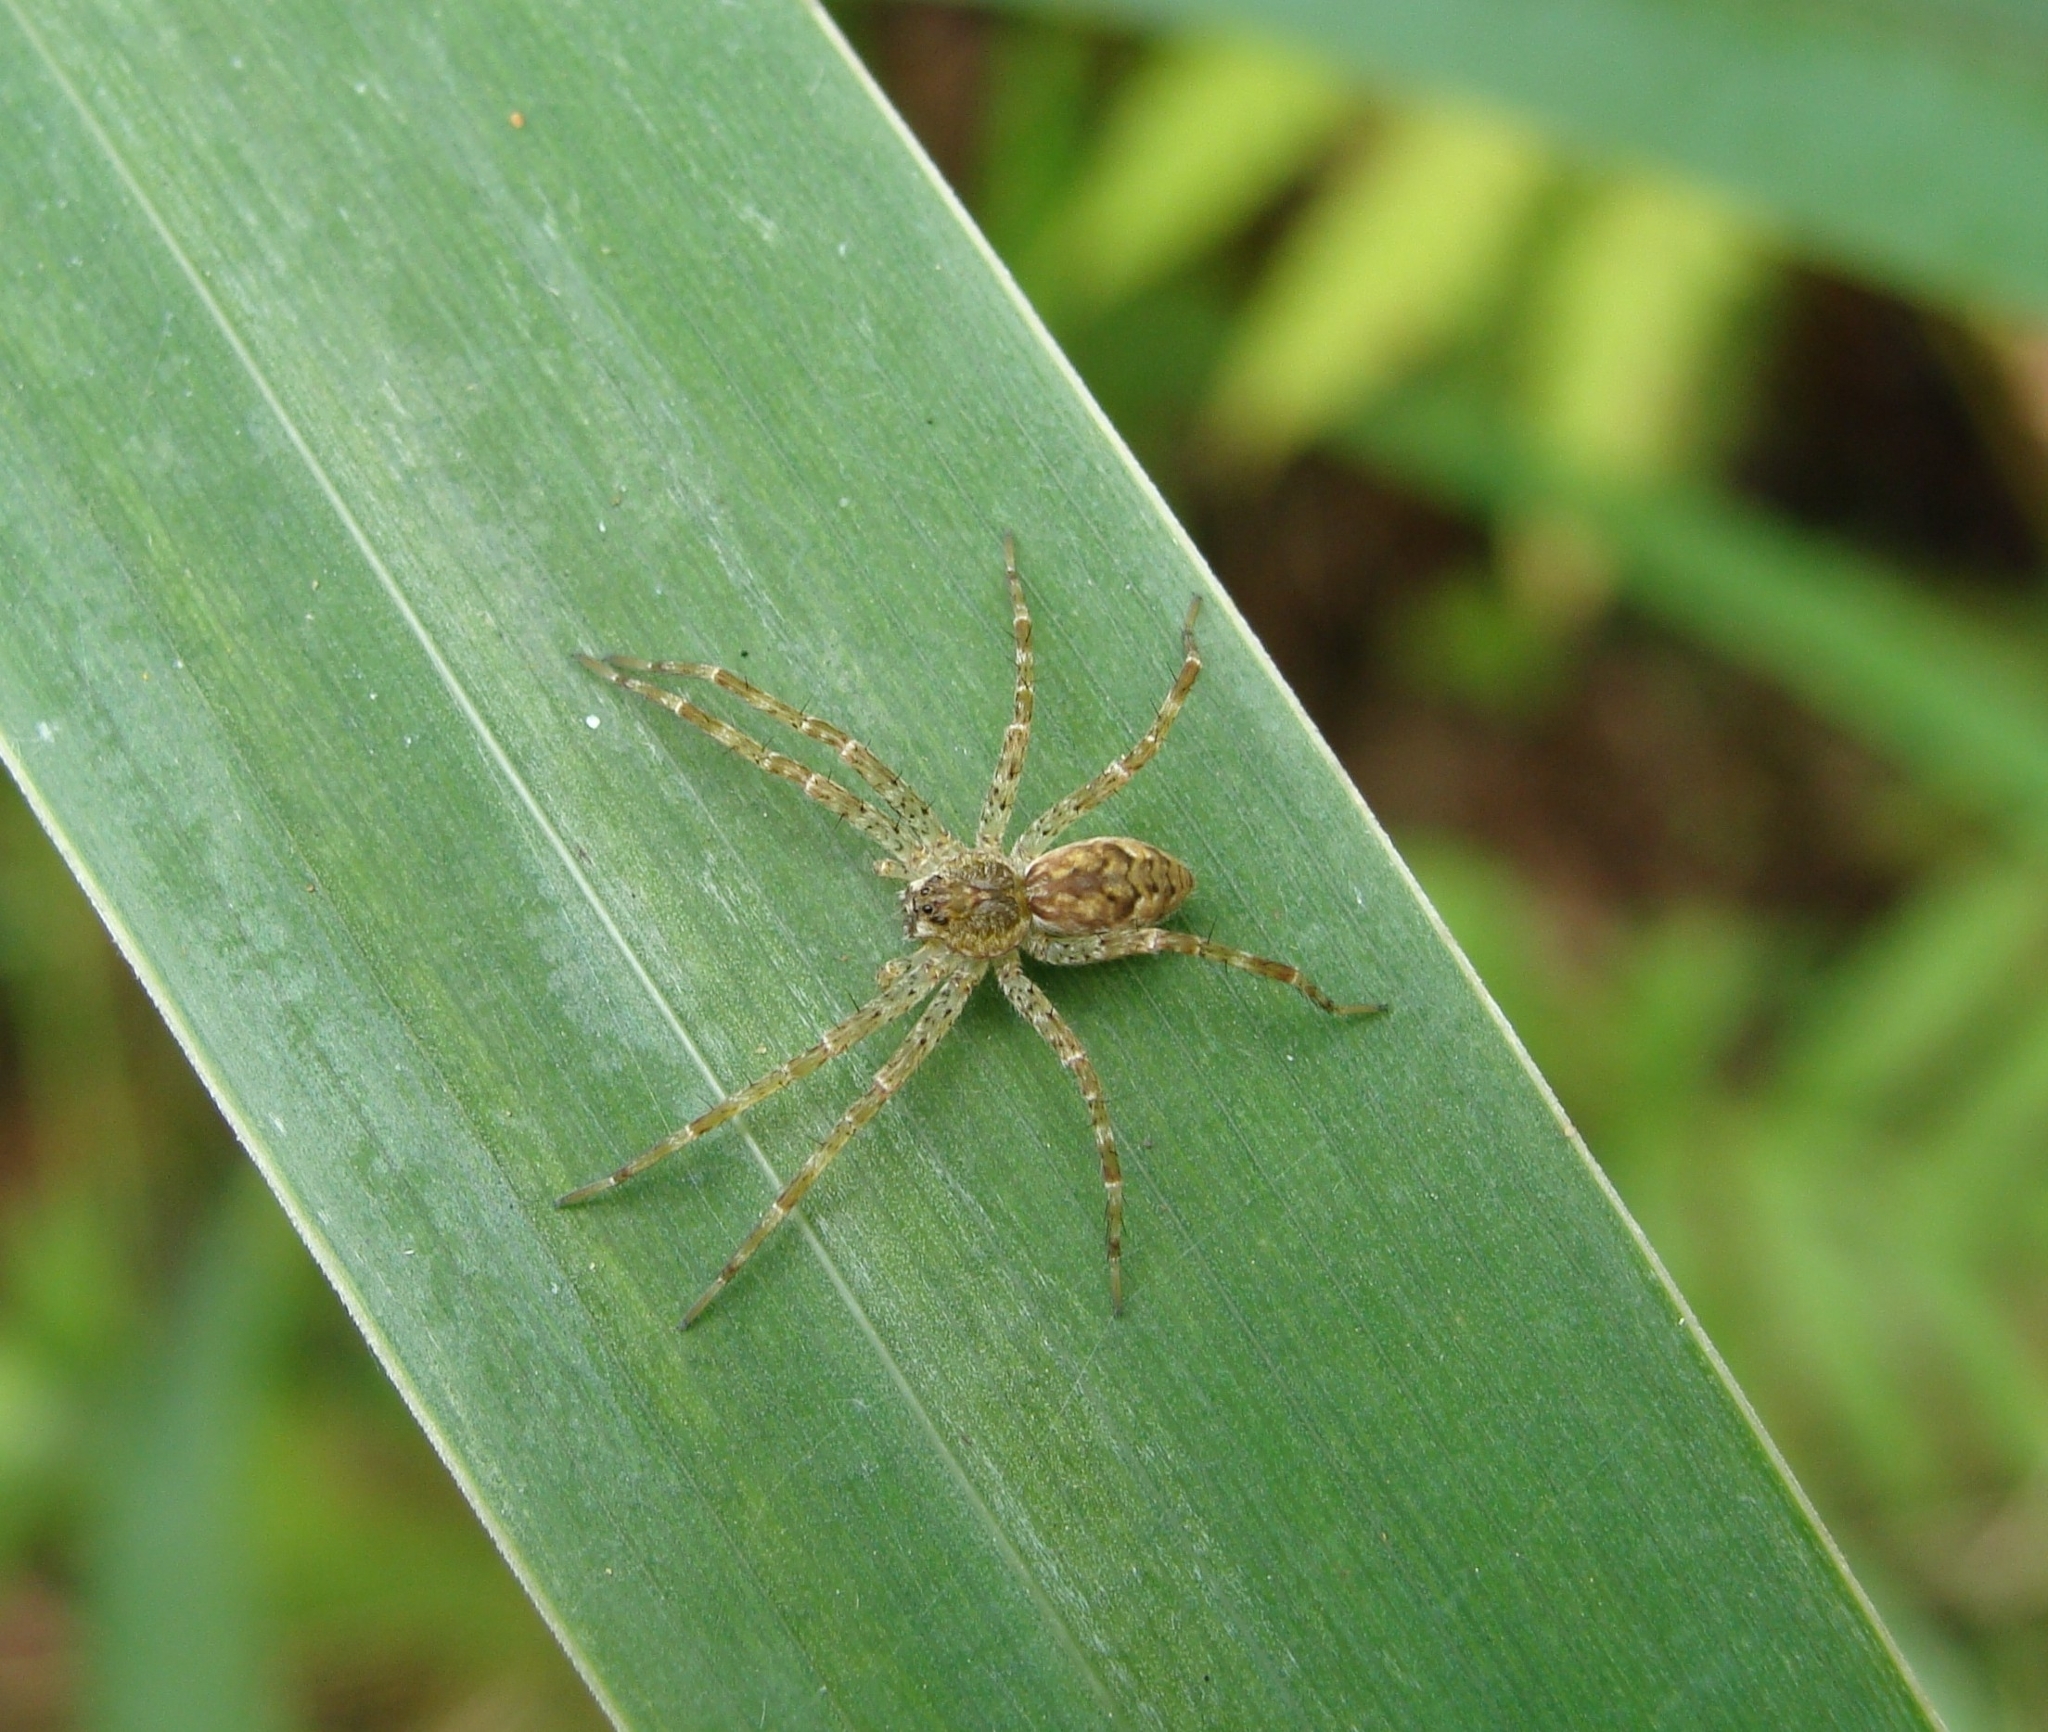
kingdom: Animalia
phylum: Arthropoda
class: Arachnida
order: Araneae
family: Pisauridae
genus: Dolomedes
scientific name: Dolomedes tenebrosus
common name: Dark fishing spider
